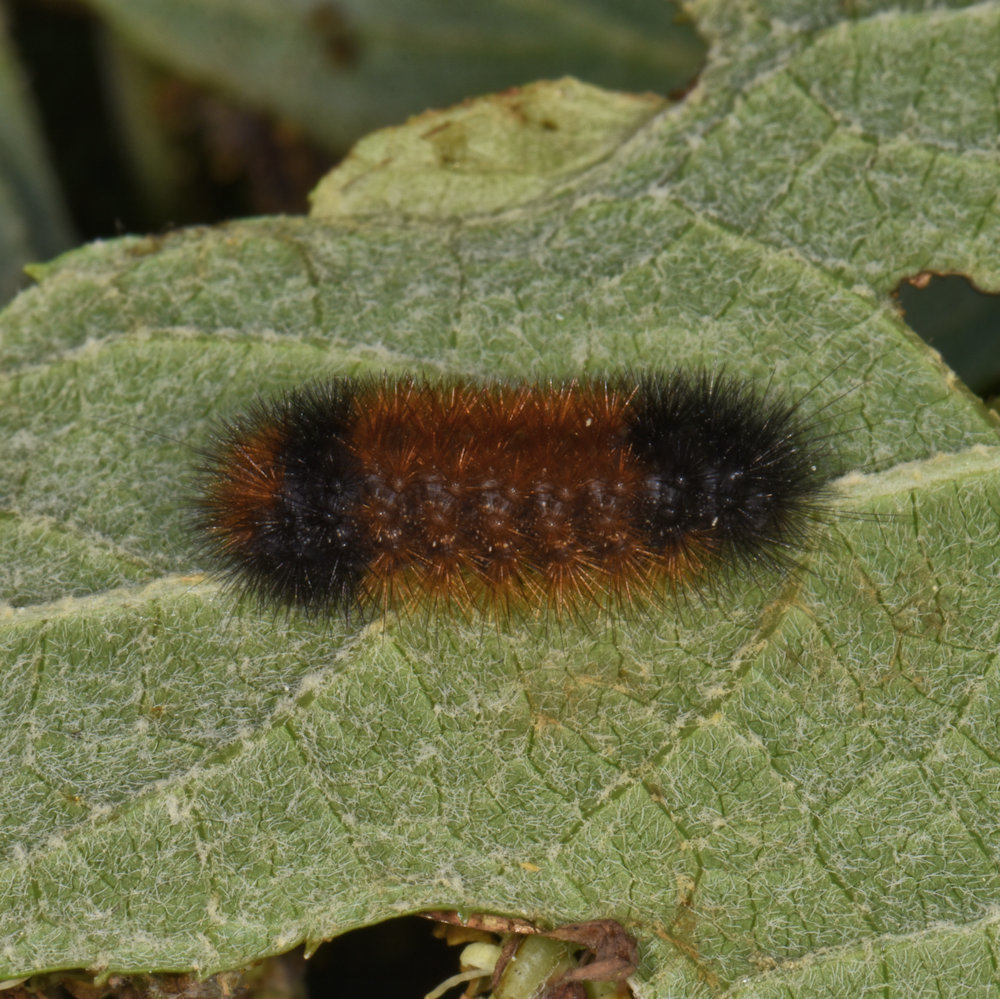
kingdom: Animalia
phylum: Arthropoda
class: Insecta
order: Lepidoptera
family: Erebidae
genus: Pyrrharctia
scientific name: Pyrrharctia isabella
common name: Isabella tiger moth
